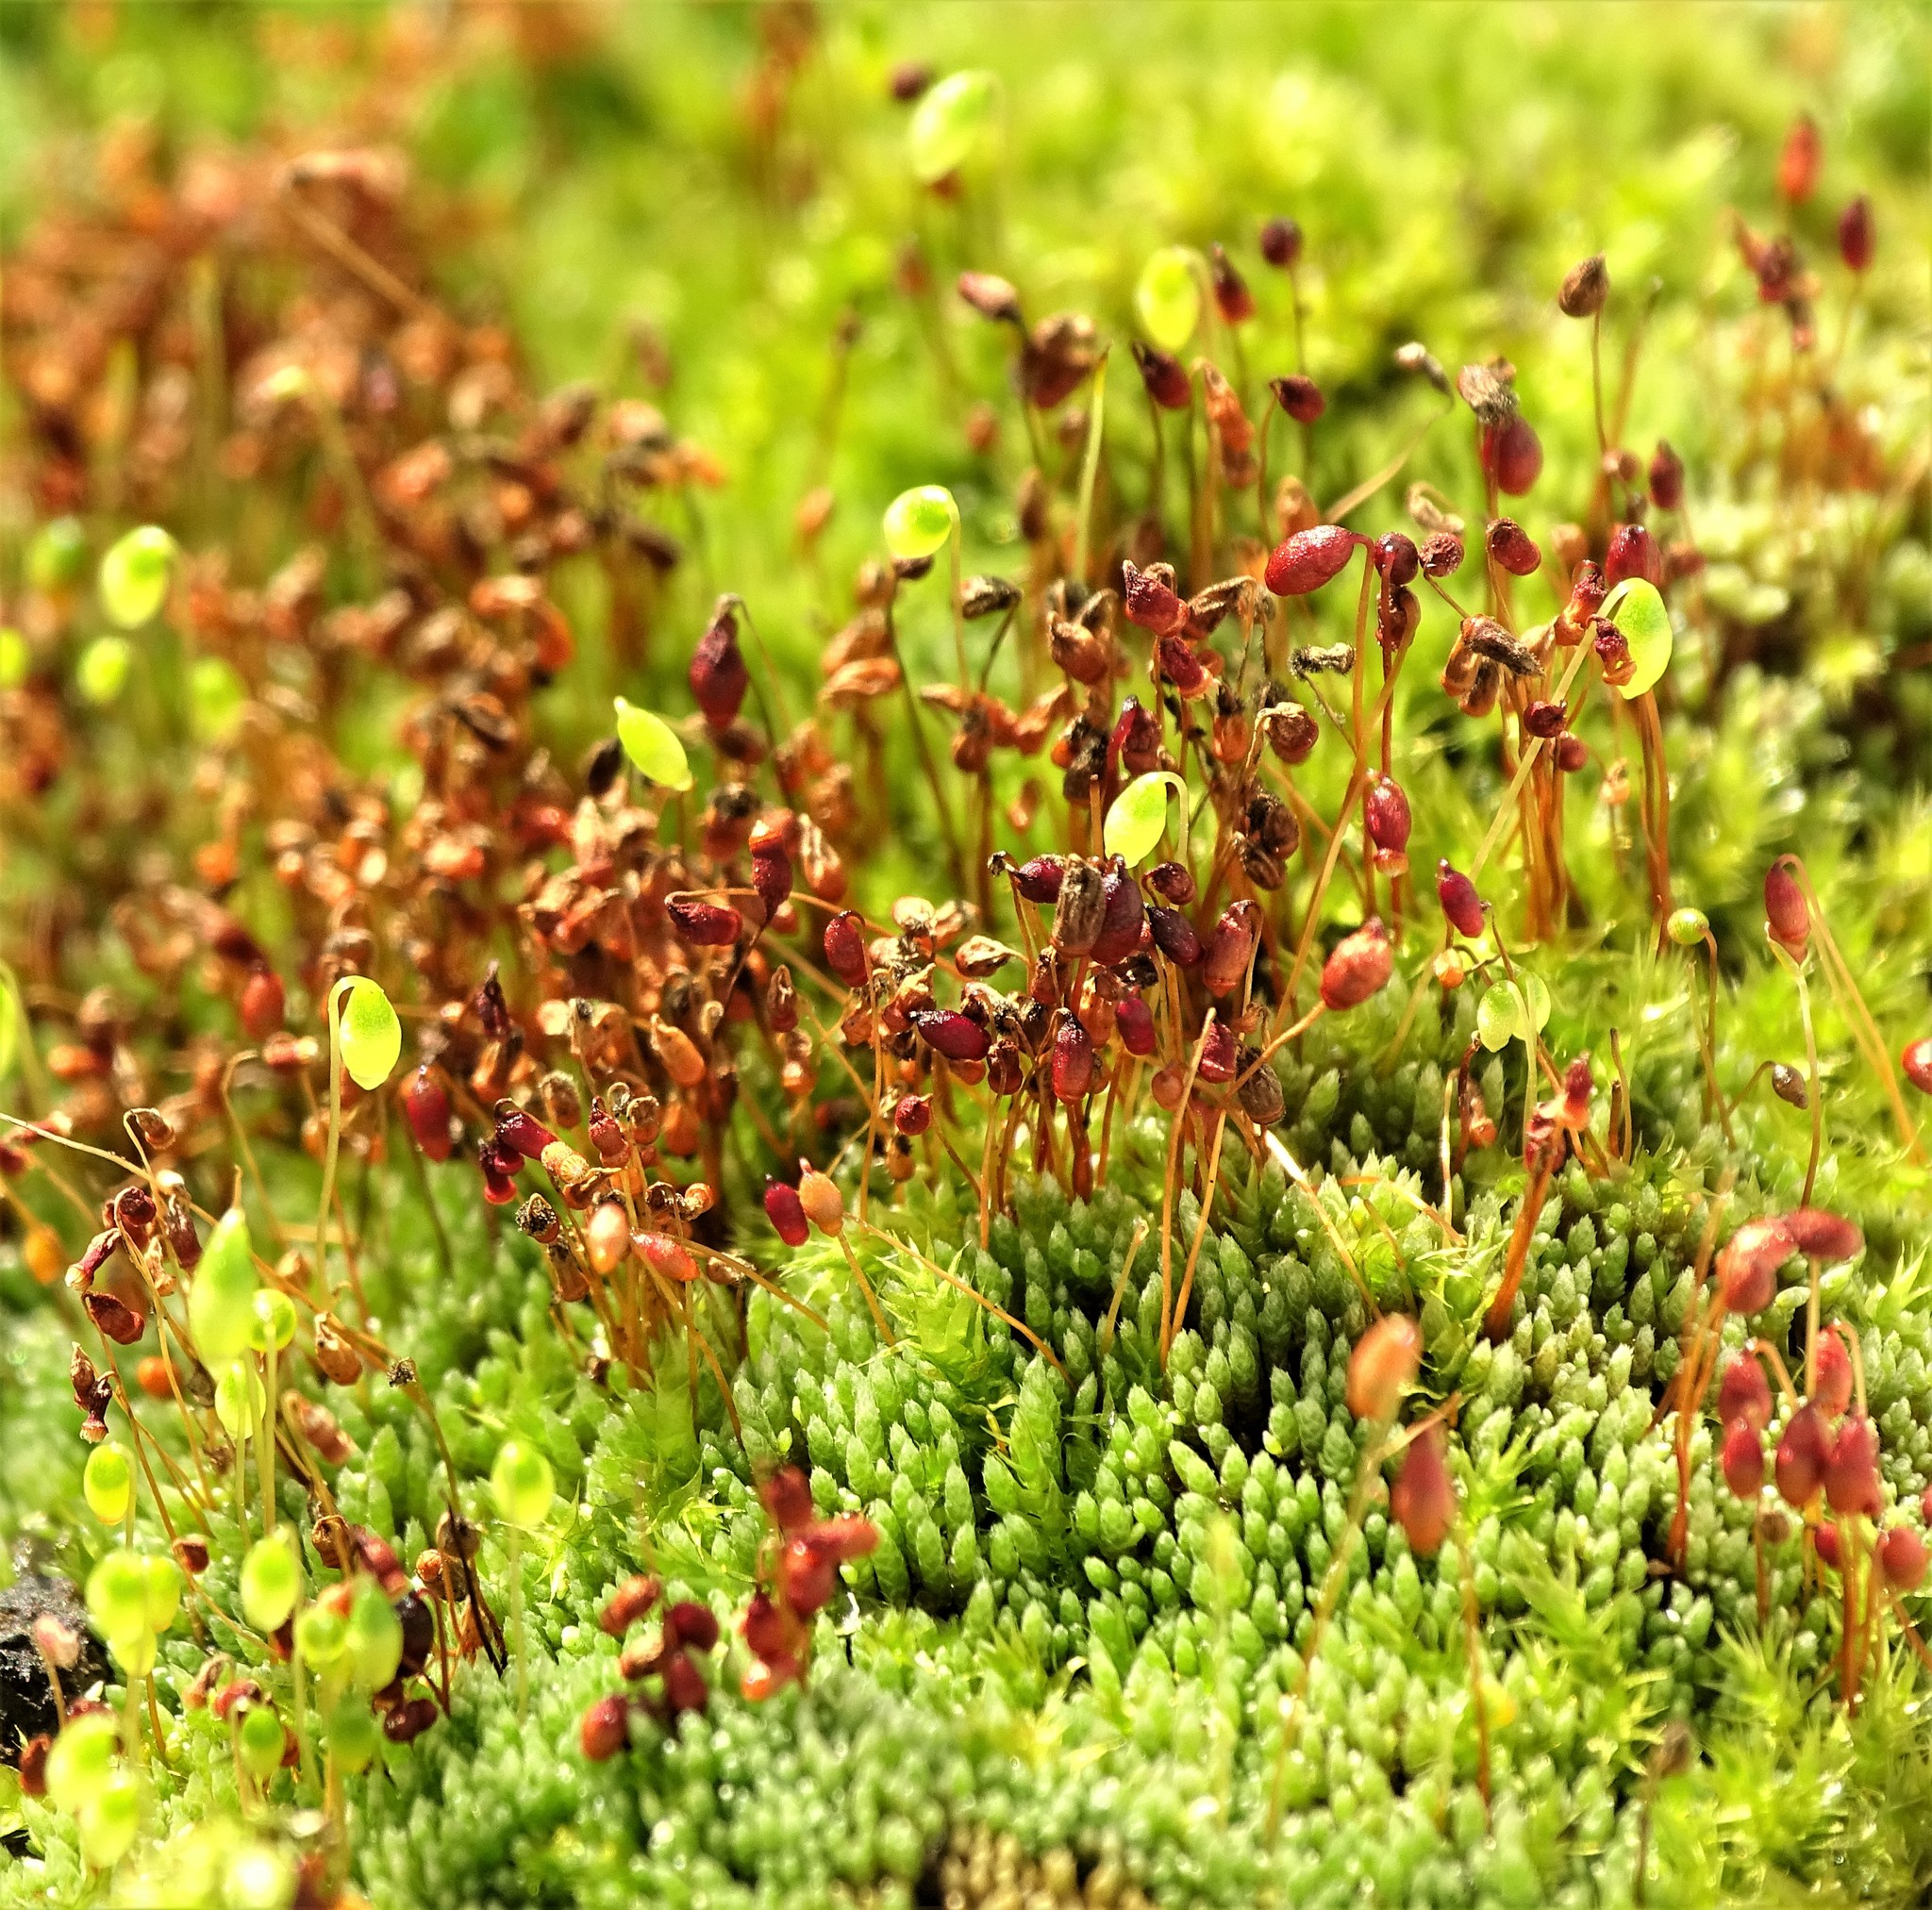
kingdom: Plantae
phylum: Bryophyta
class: Bryopsida
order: Bryales
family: Bryaceae
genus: Bryum
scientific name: Bryum argenteum
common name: Silver-moss
